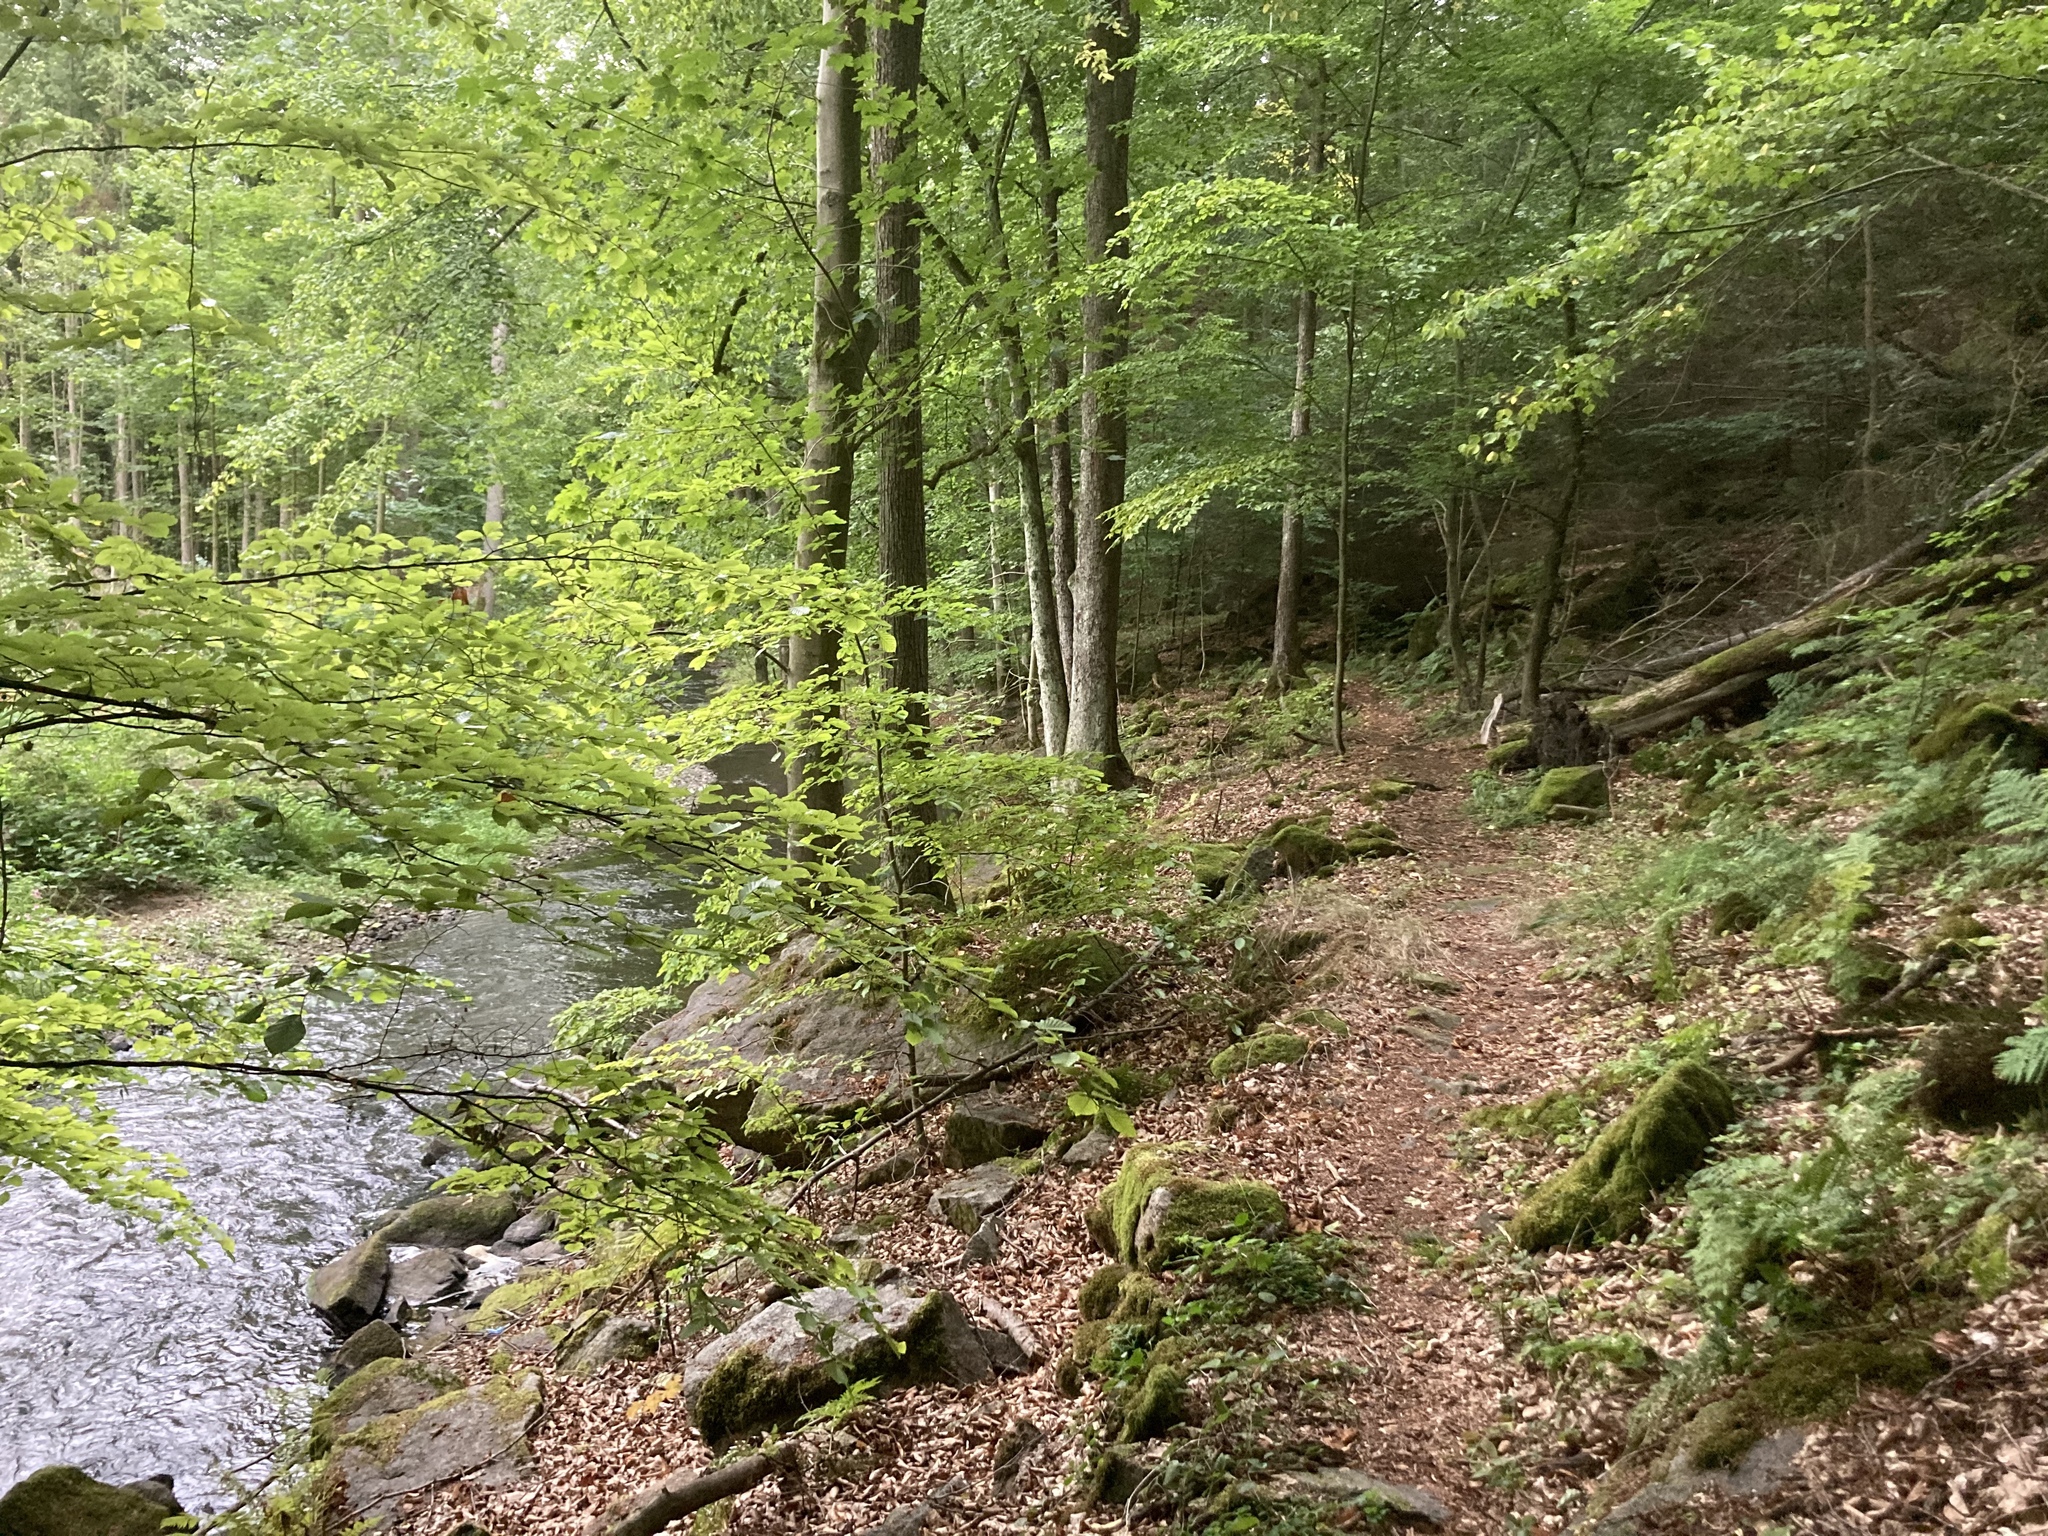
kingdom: Plantae
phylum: Tracheophyta
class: Magnoliopsida
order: Fagales
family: Fagaceae
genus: Fagus
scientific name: Fagus sylvatica
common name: Beech
